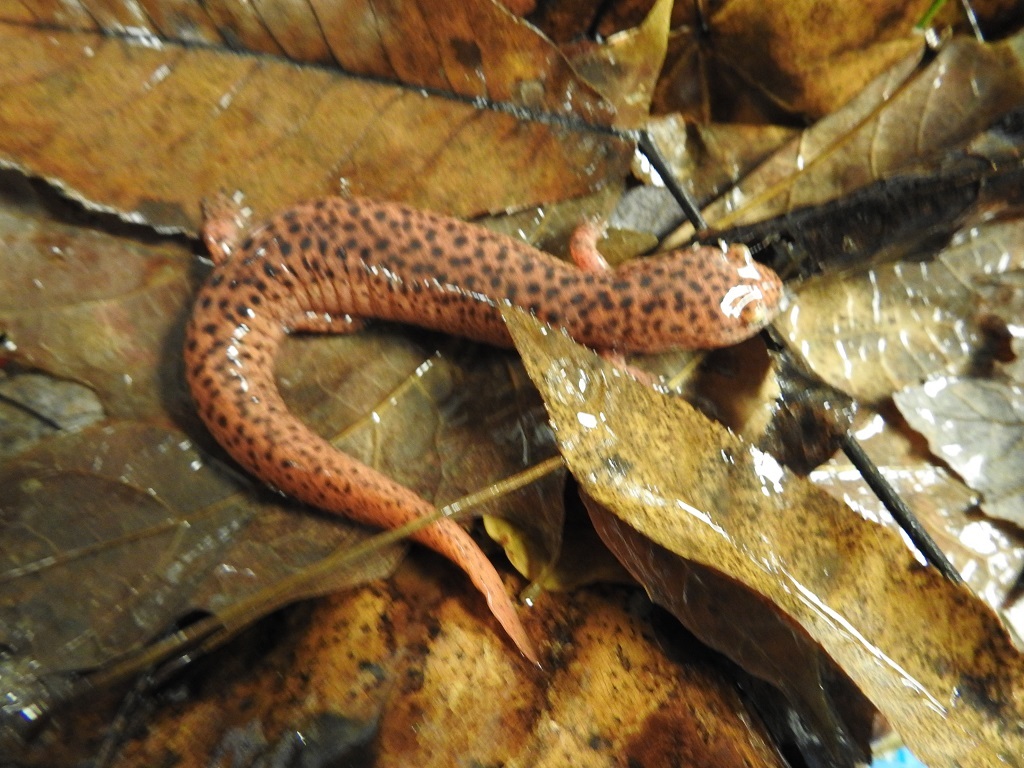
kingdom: Animalia
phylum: Chordata
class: Amphibia
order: Caudata
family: Plethodontidae
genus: Pseudotriton
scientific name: Pseudotriton ruber
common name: Red salamander
